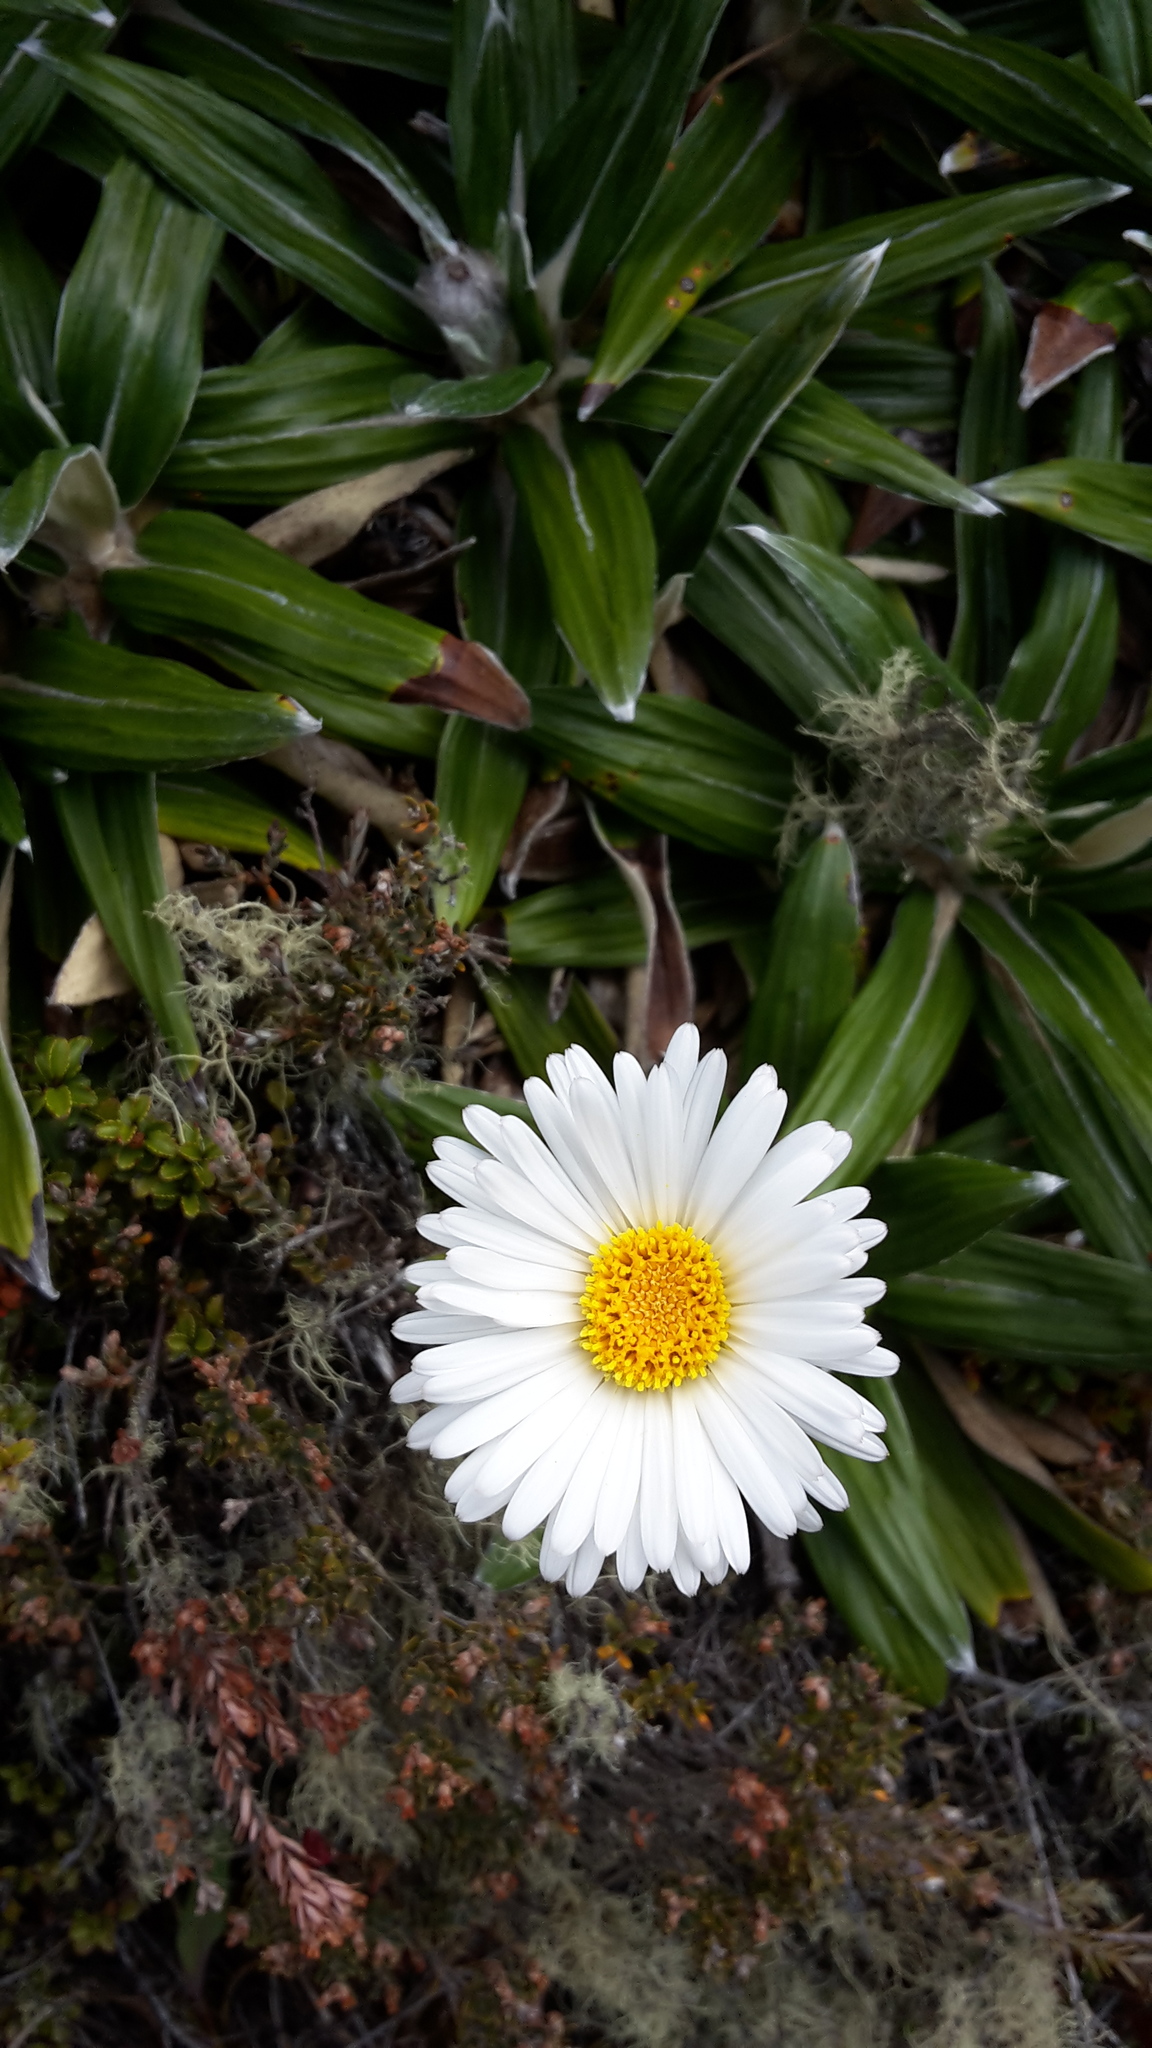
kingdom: Plantae
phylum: Tracheophyta
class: Magnoliopsida
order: Asterales
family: Asteraceae
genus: Celmisia
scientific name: Celmisia spectabilis
